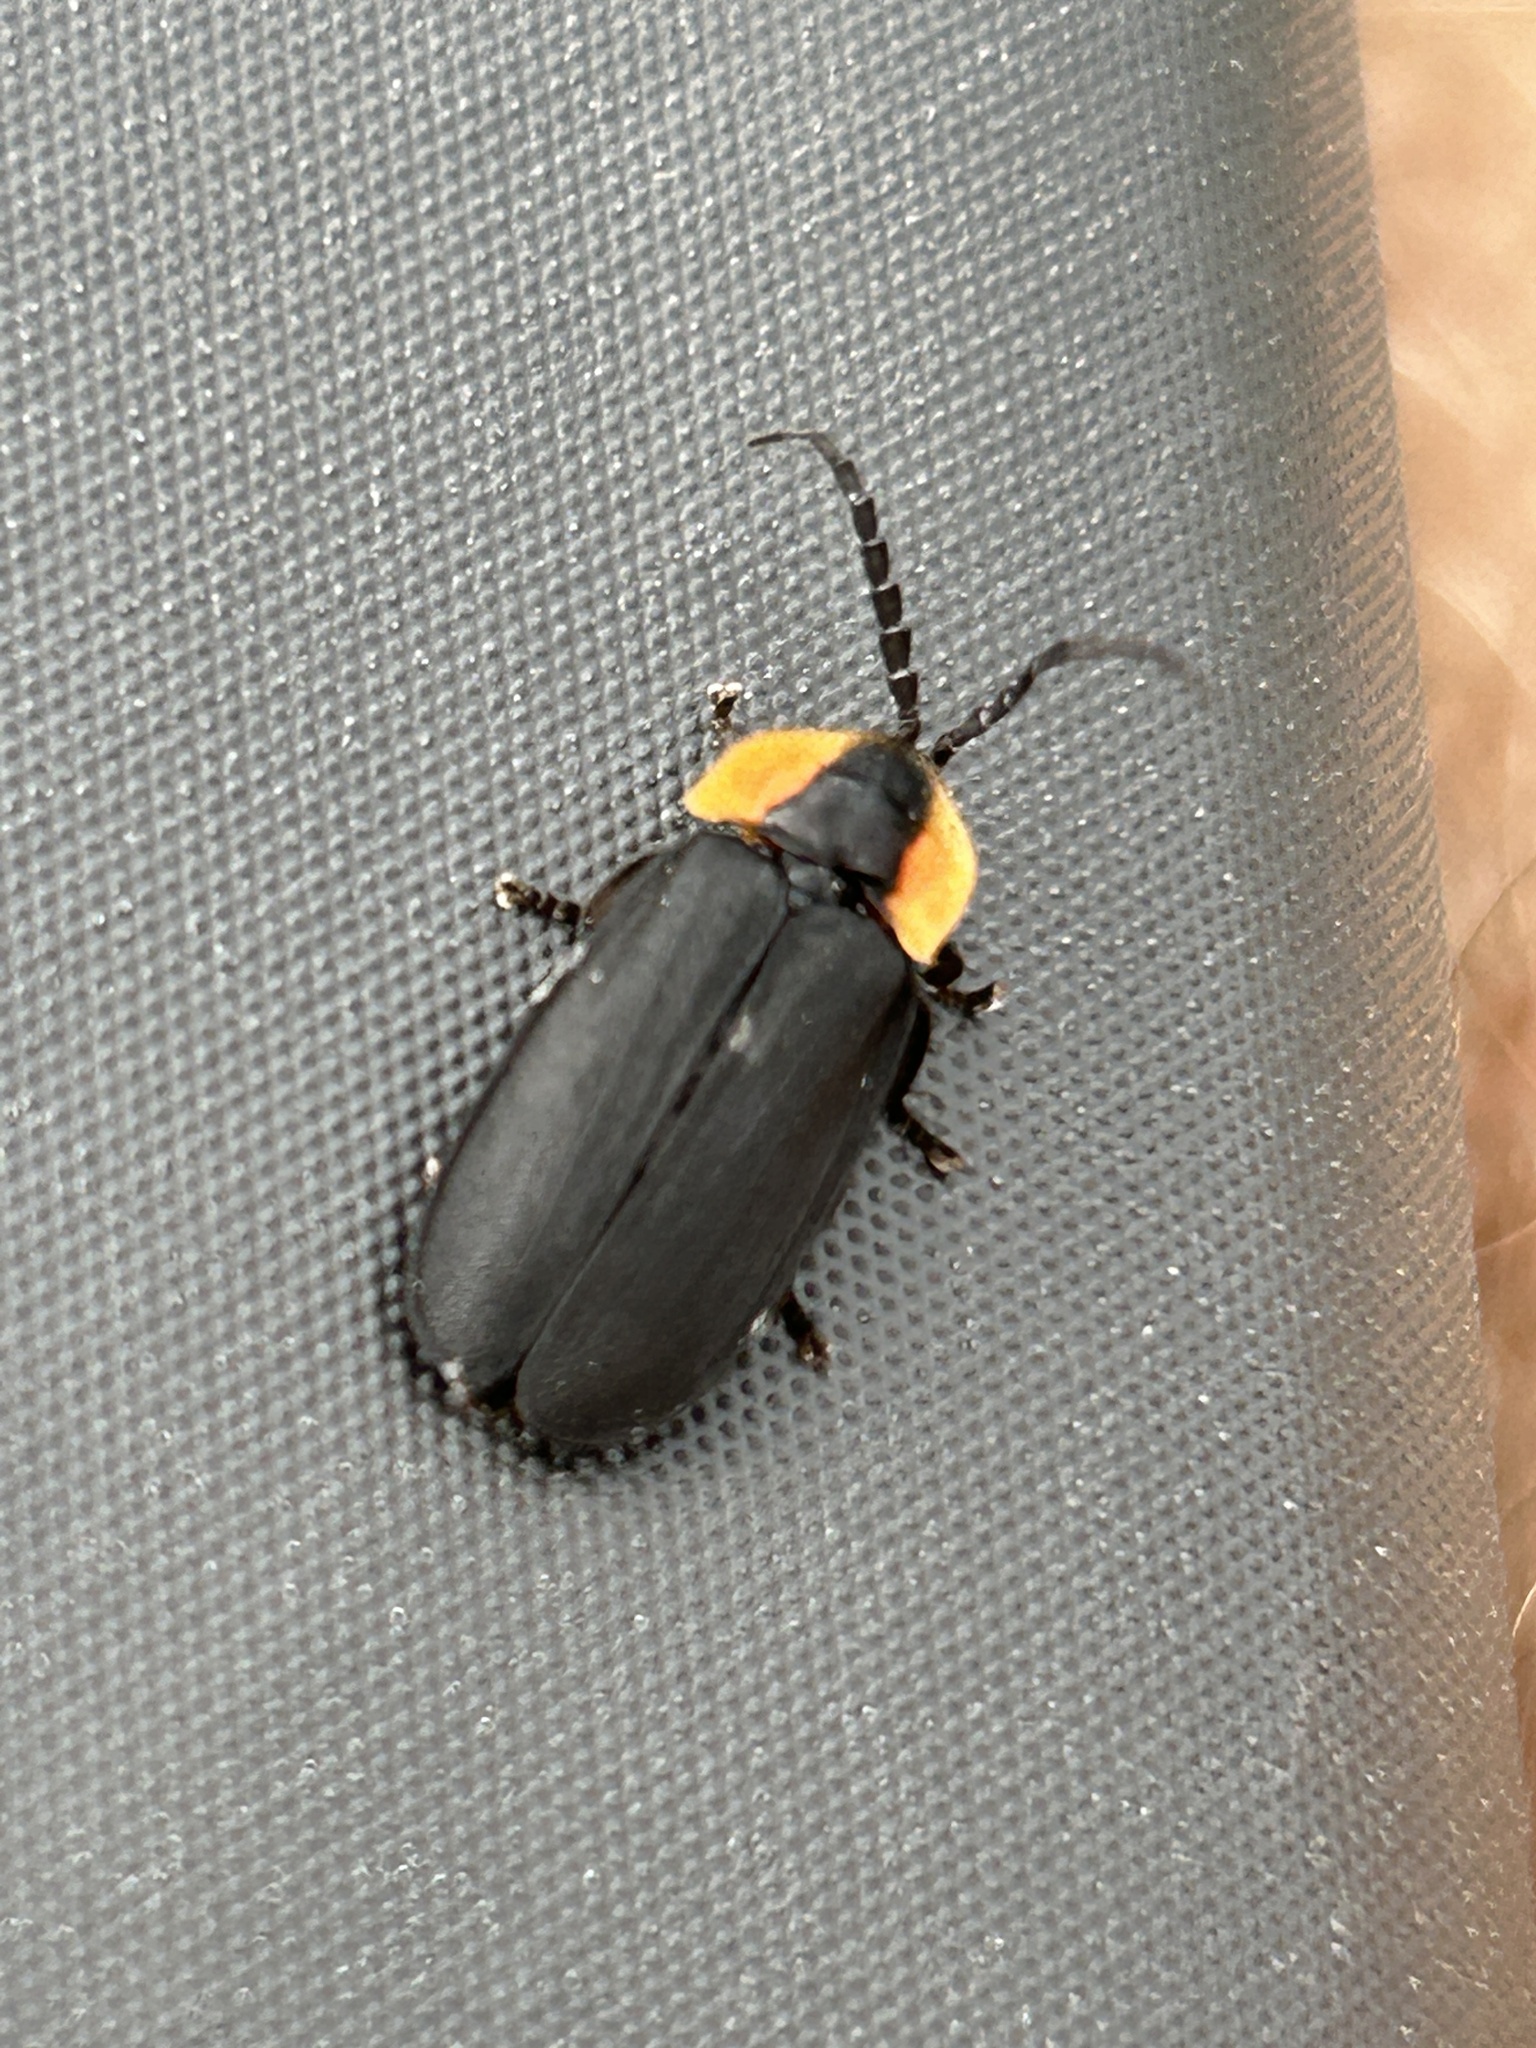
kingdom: Animalia
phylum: Arthropoda
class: Insecta
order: Coleoptera
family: Lampyridae
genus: Lucidota
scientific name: Lucidota atra
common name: Black firefly
